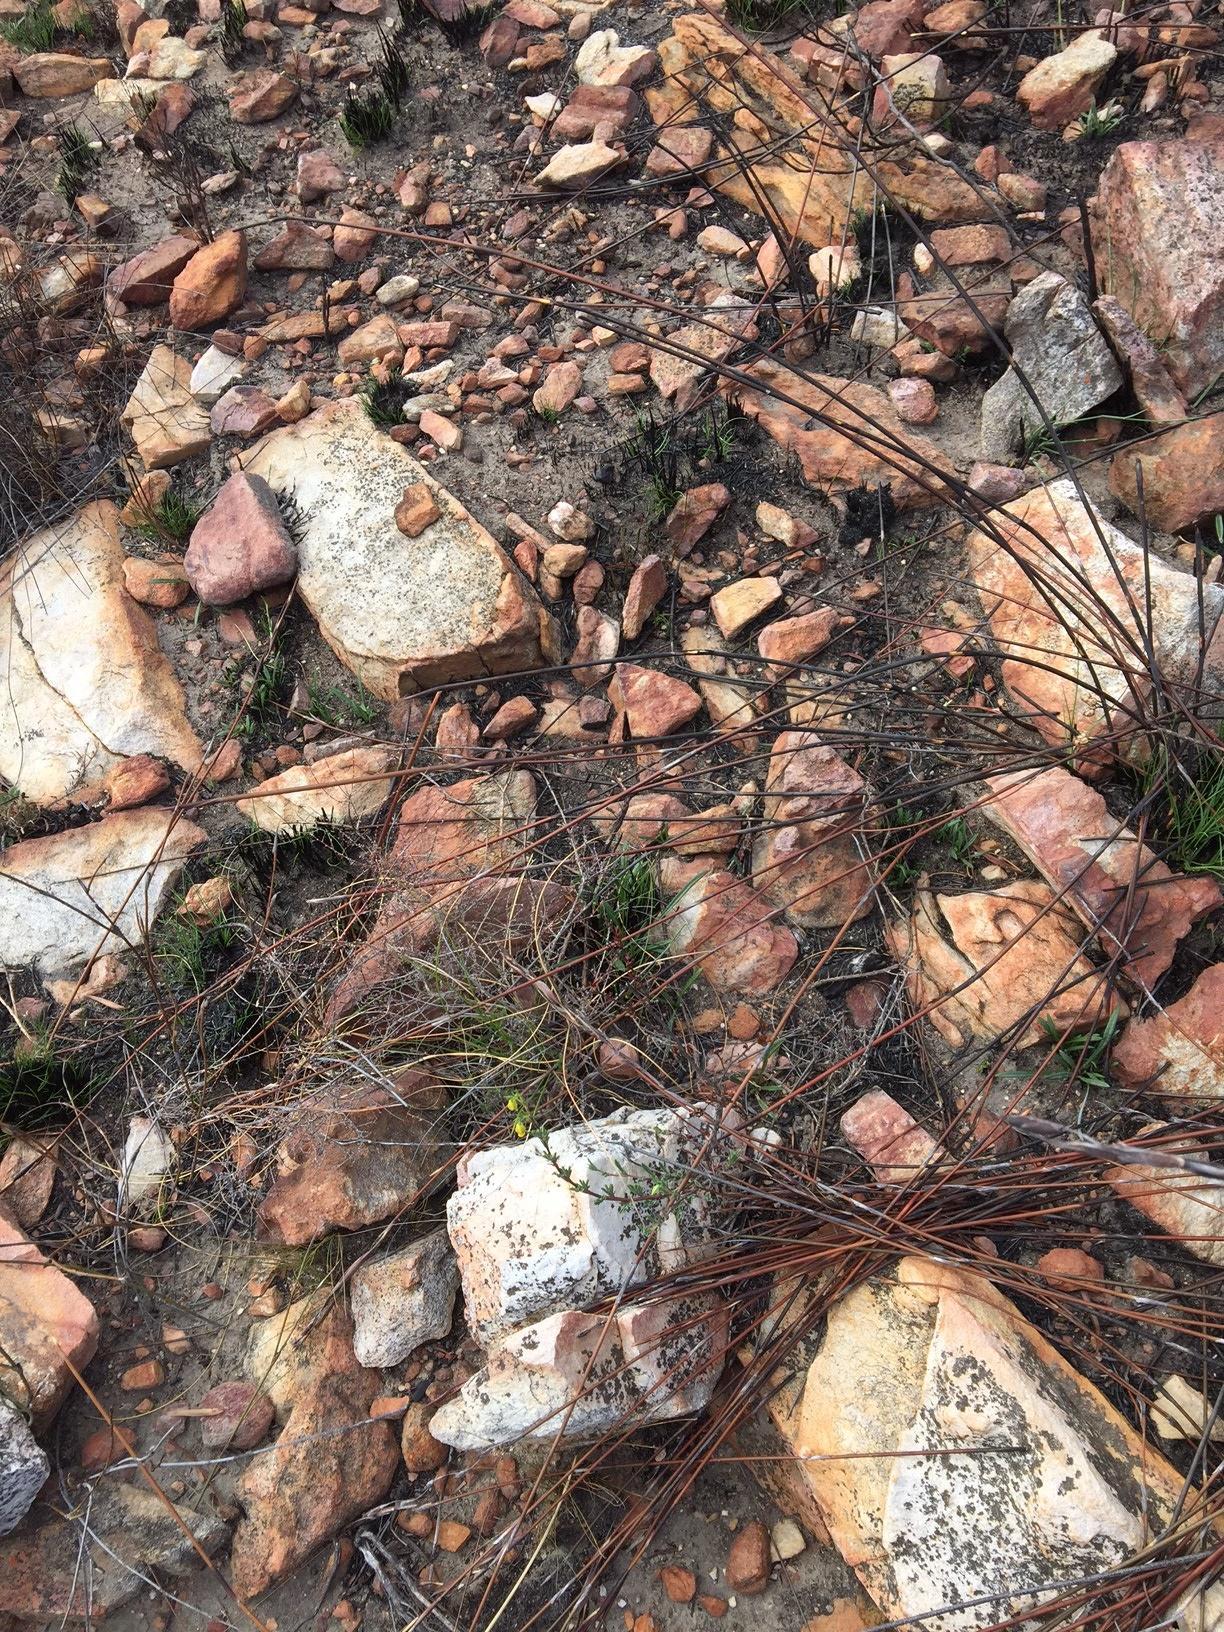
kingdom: Plantae
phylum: Tracheophyta
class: Magnoliopsida
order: Malvales
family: Malvaceae
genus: Hermannia
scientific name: Hermannia
